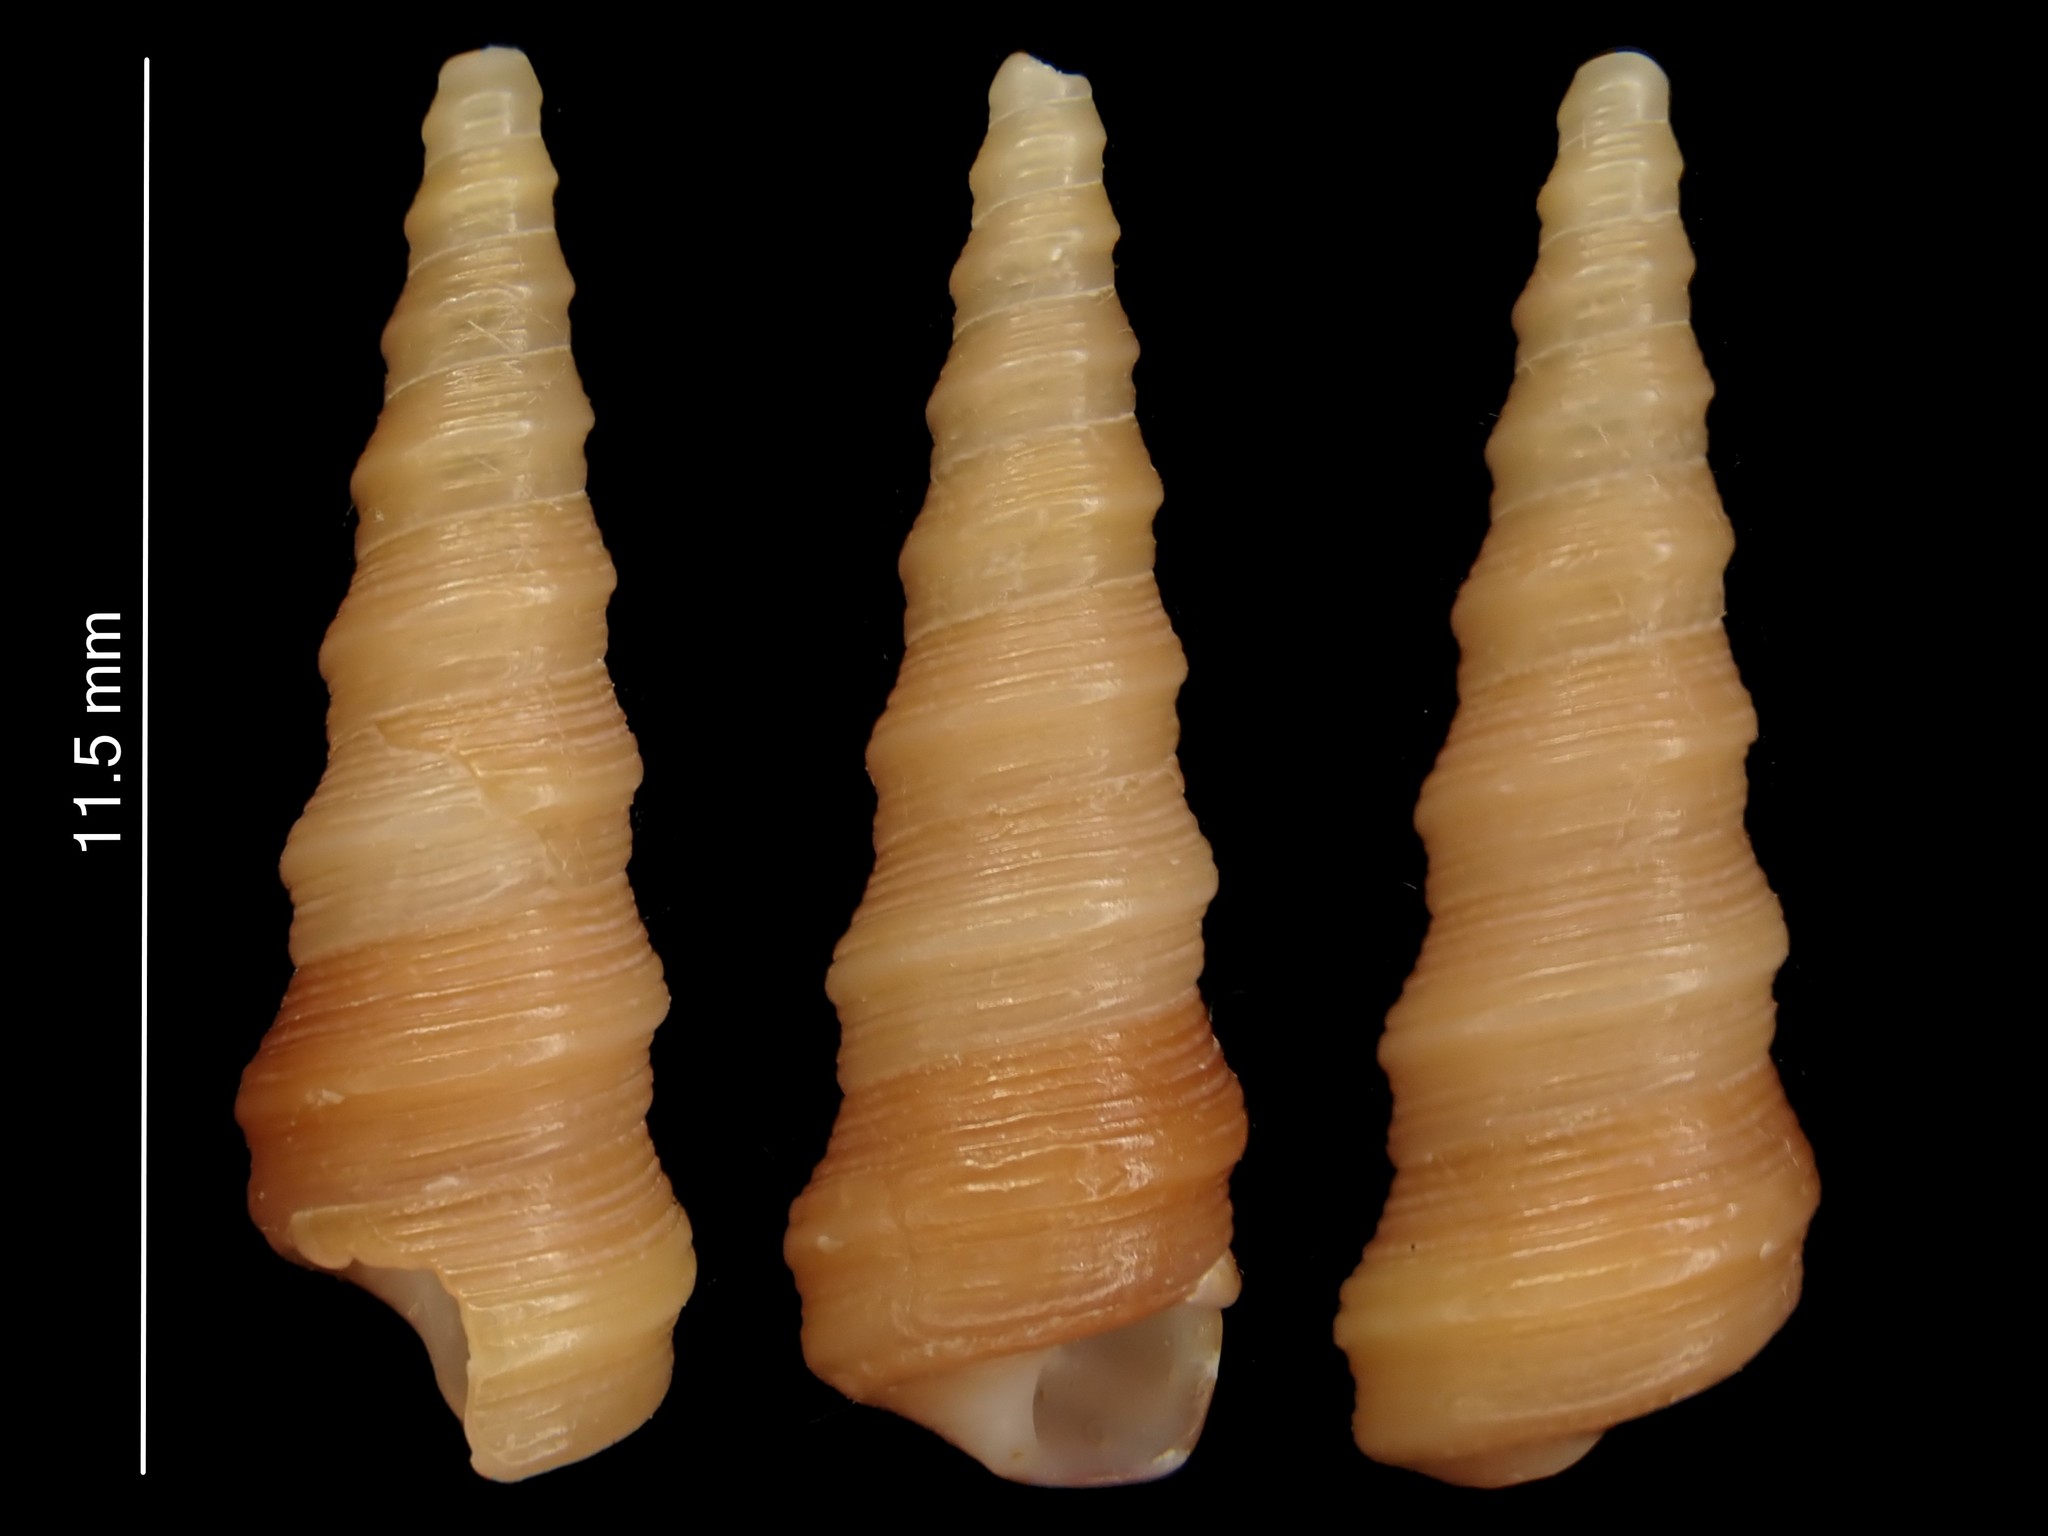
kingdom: Animalia
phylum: Mollusca
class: Gastropoda
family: Turritellidae
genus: Stiracolpus
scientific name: Stiracolpus ahiparanus
